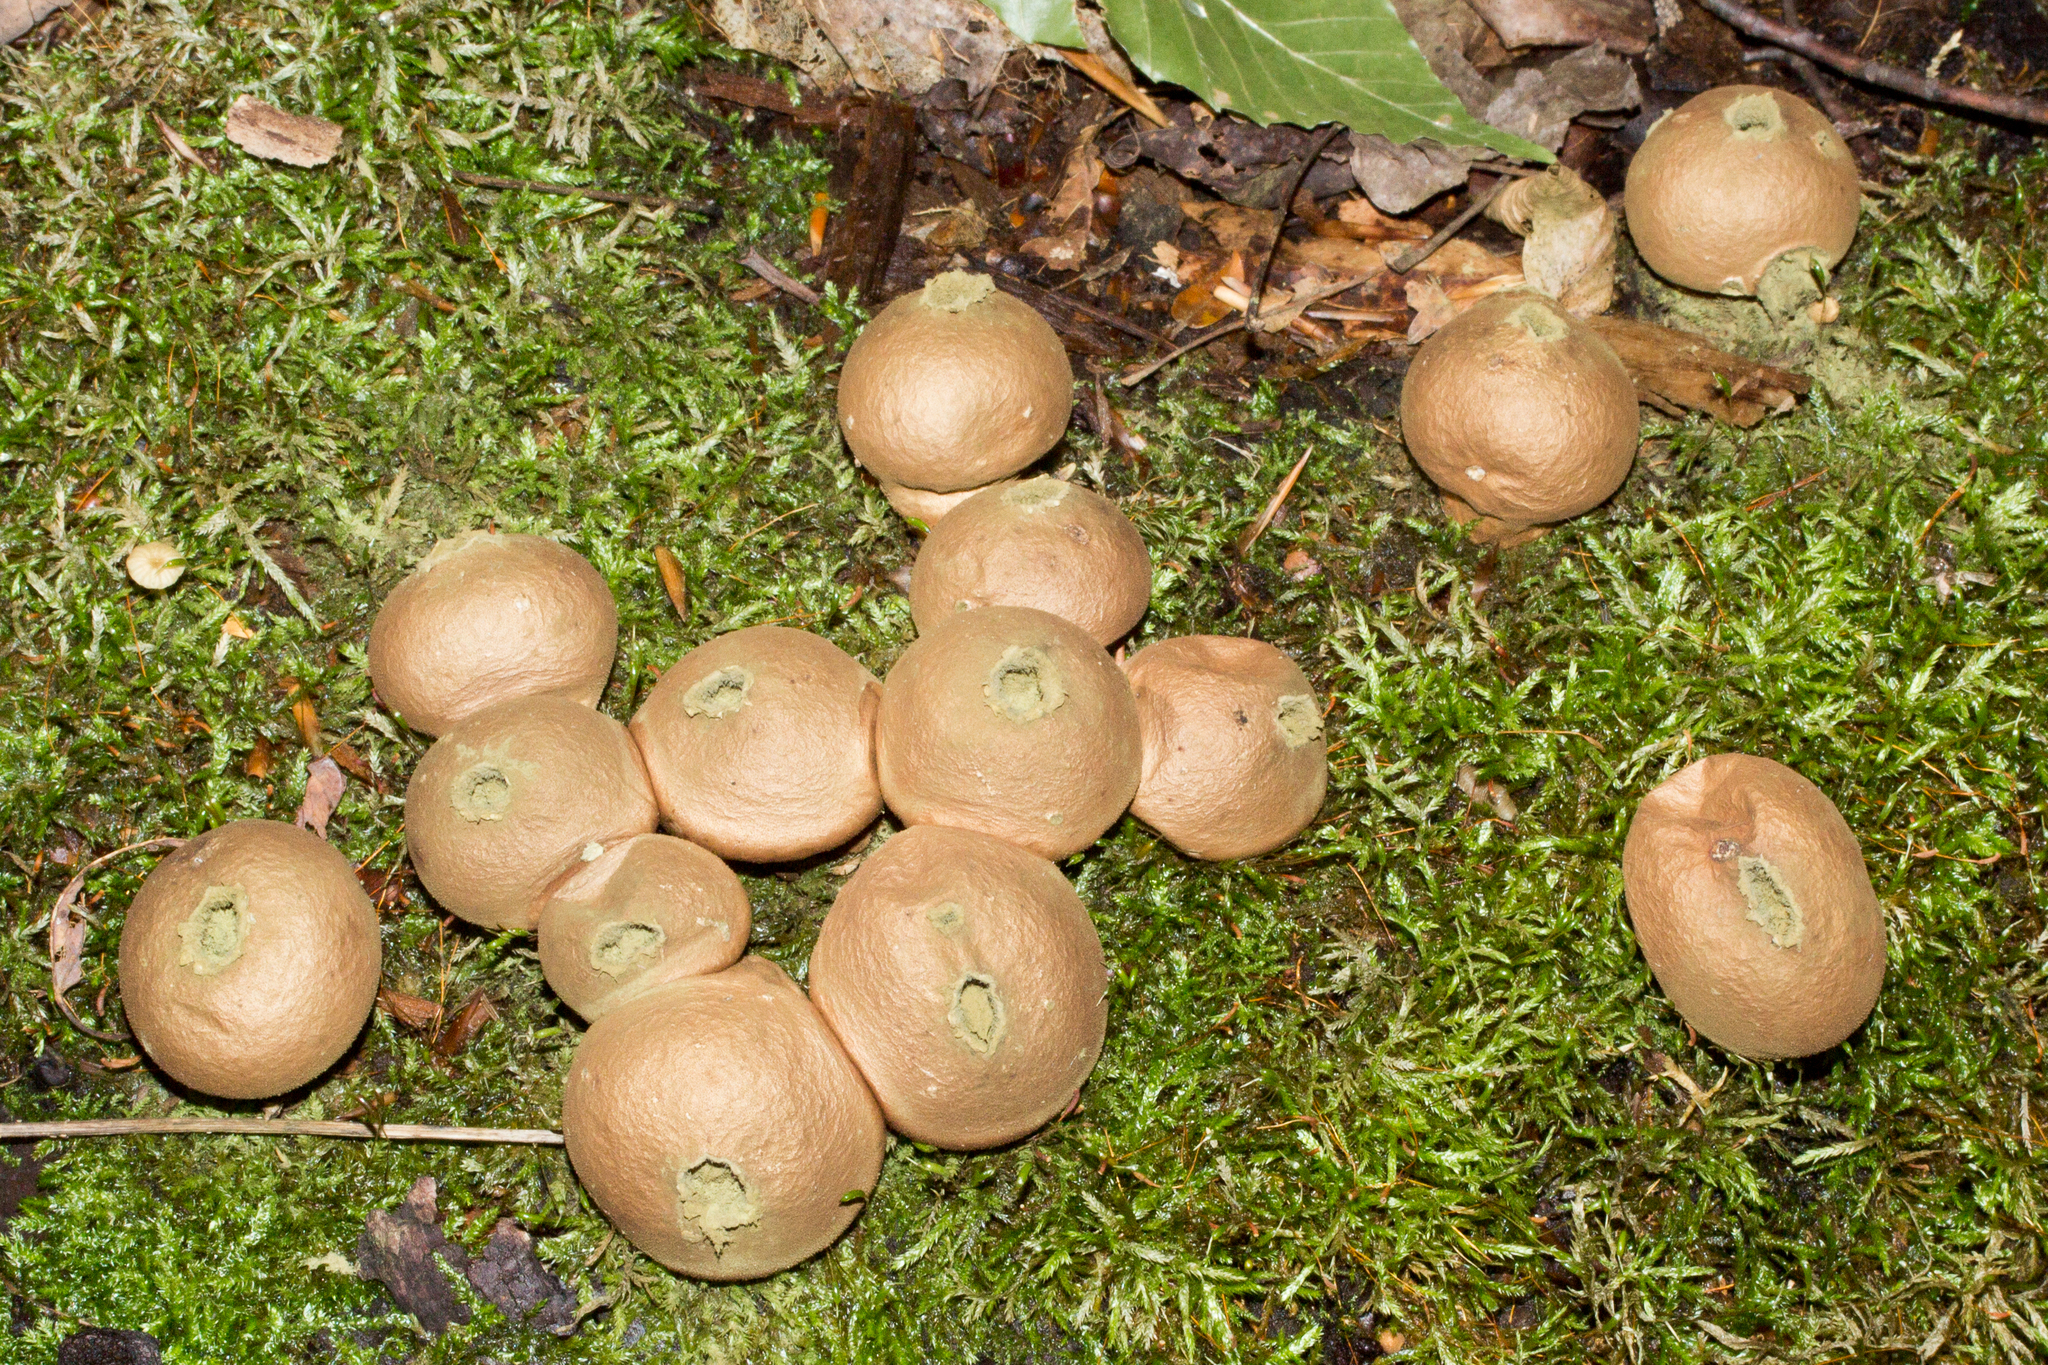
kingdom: Fungi
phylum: Basidiomycota
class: Agaricomycetes
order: Agaricales
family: Lycoperdaceae
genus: Apioperdon
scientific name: Apioperdon pyriforme
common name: Pear-shaped puffball
